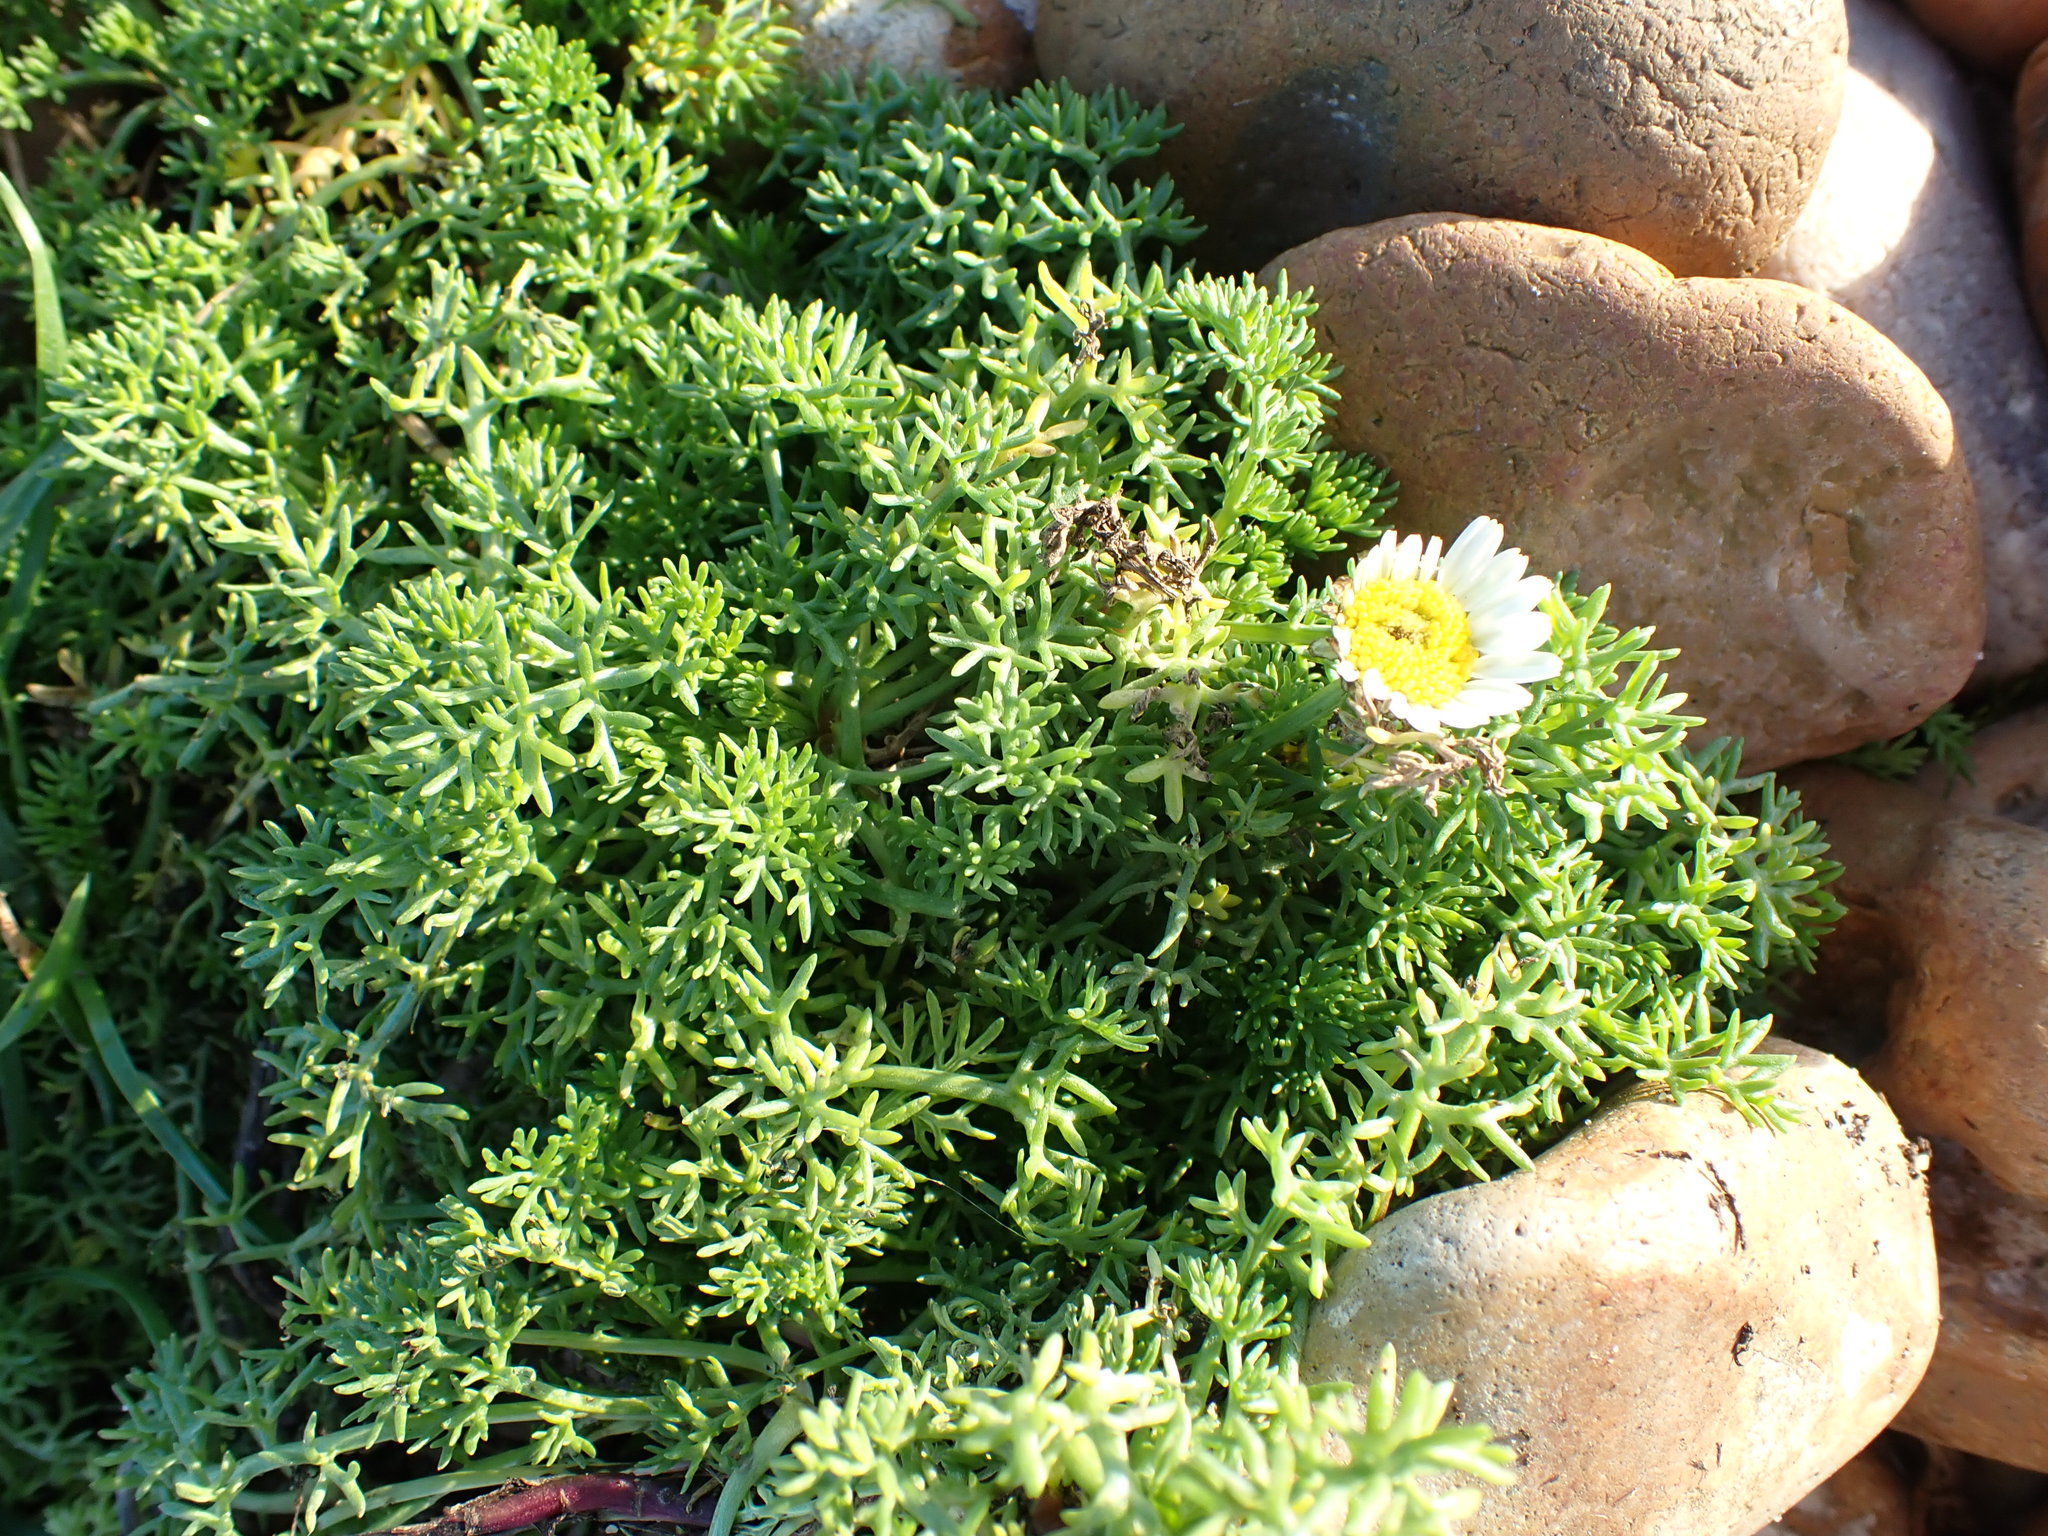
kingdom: Plantae
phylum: Tracheophyta
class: Magnoliopsida
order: Asterales
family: Asteraceae
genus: Tripleurospermum
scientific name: Tripleurospermum maritimum
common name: Sea mayweed
